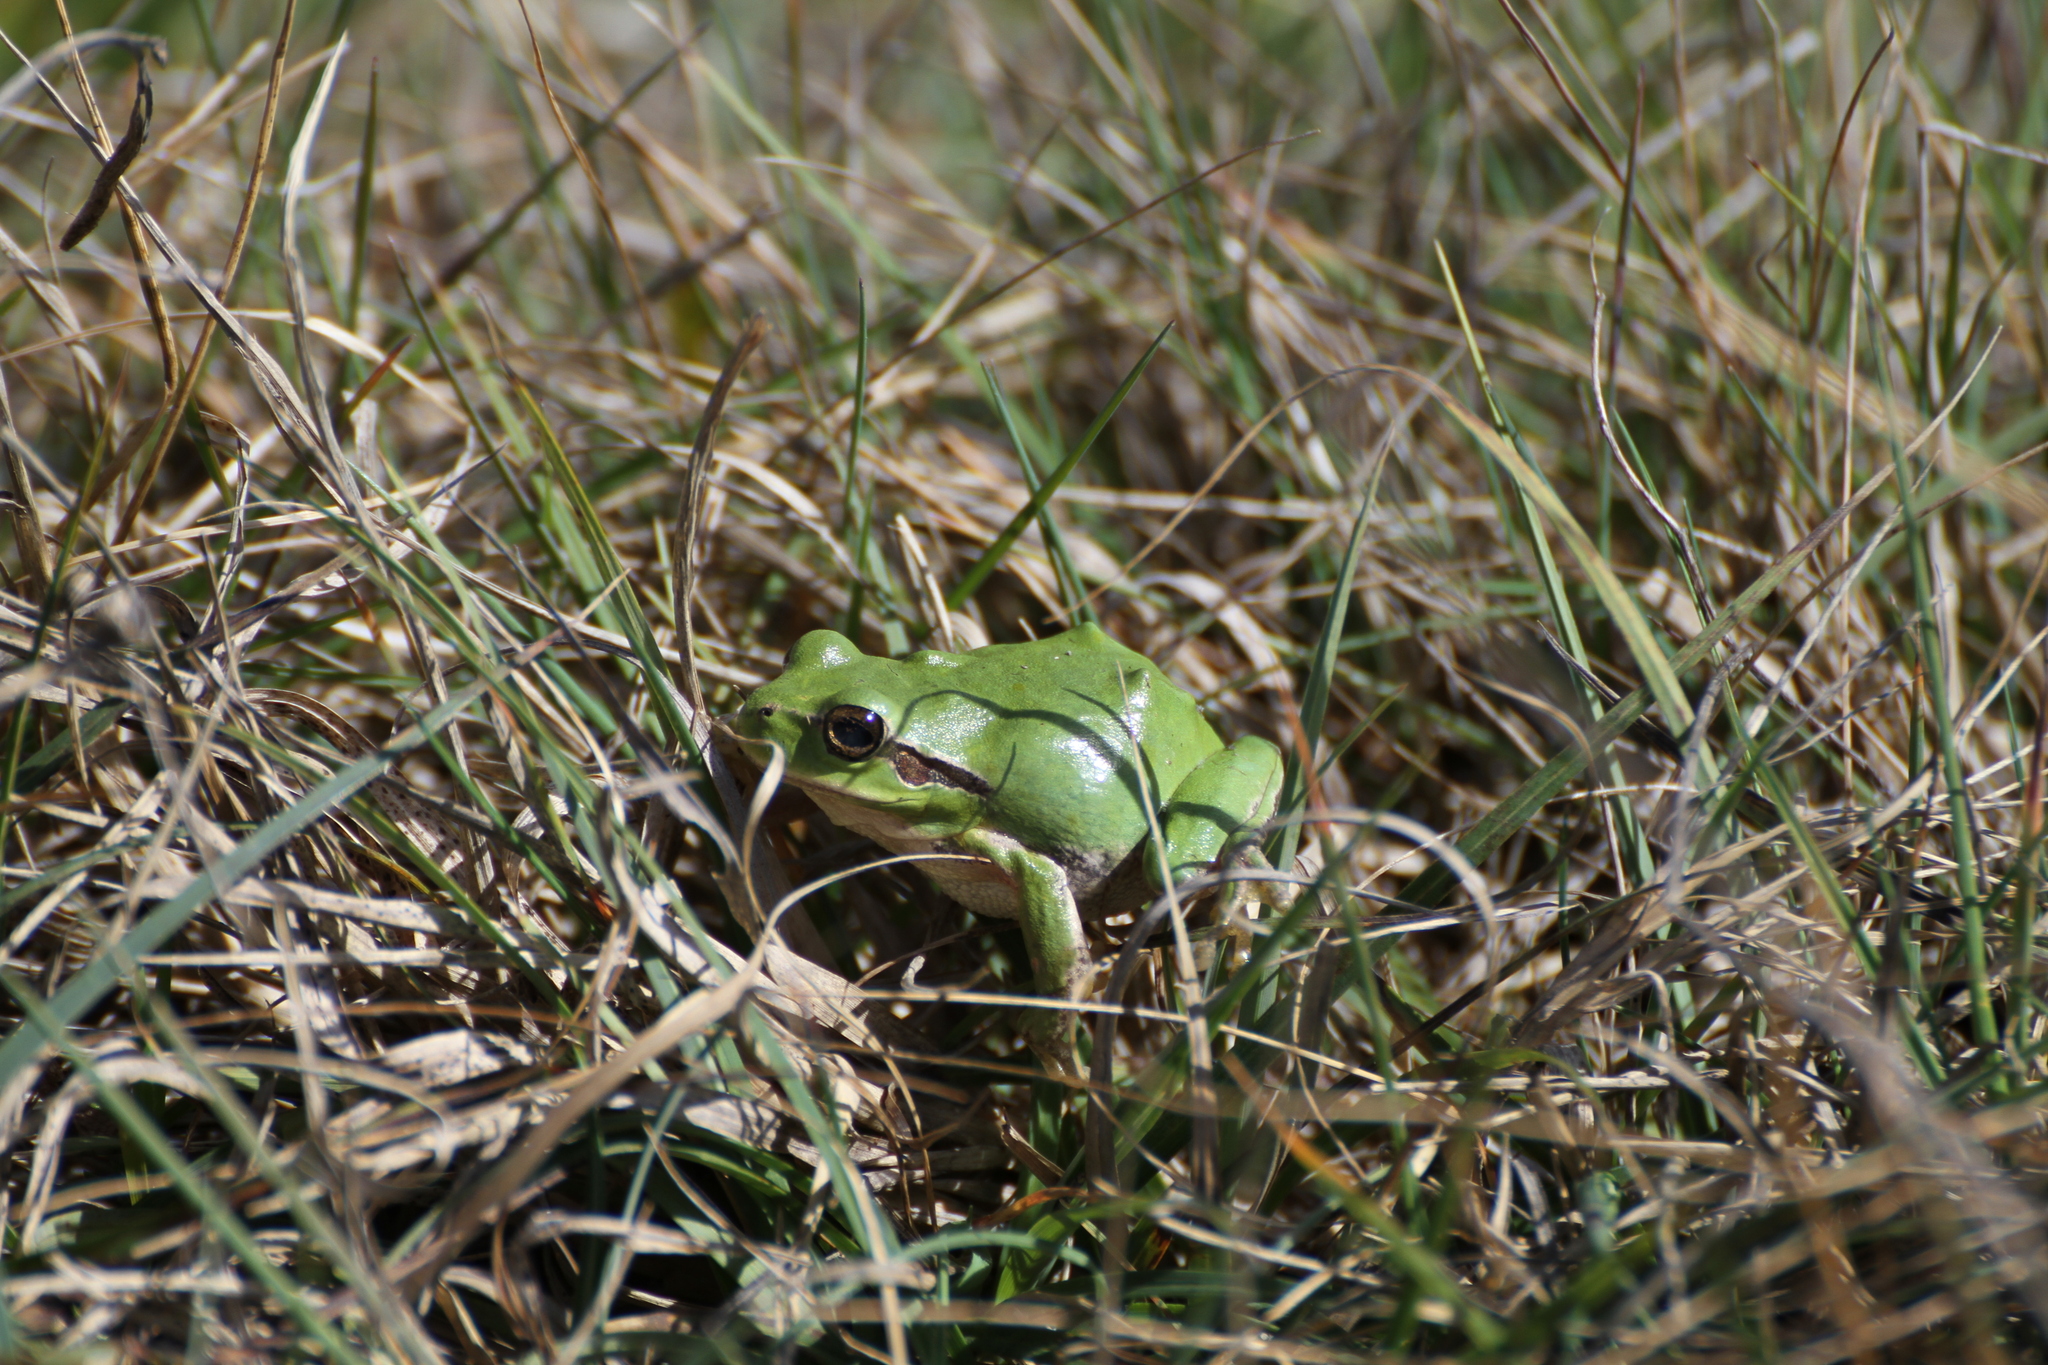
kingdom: Animalia
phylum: Chordata
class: Amphibia
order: Anura
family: Hylidae
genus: Hyla
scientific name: Hyla meridionalis
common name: Stripeless tree frog
